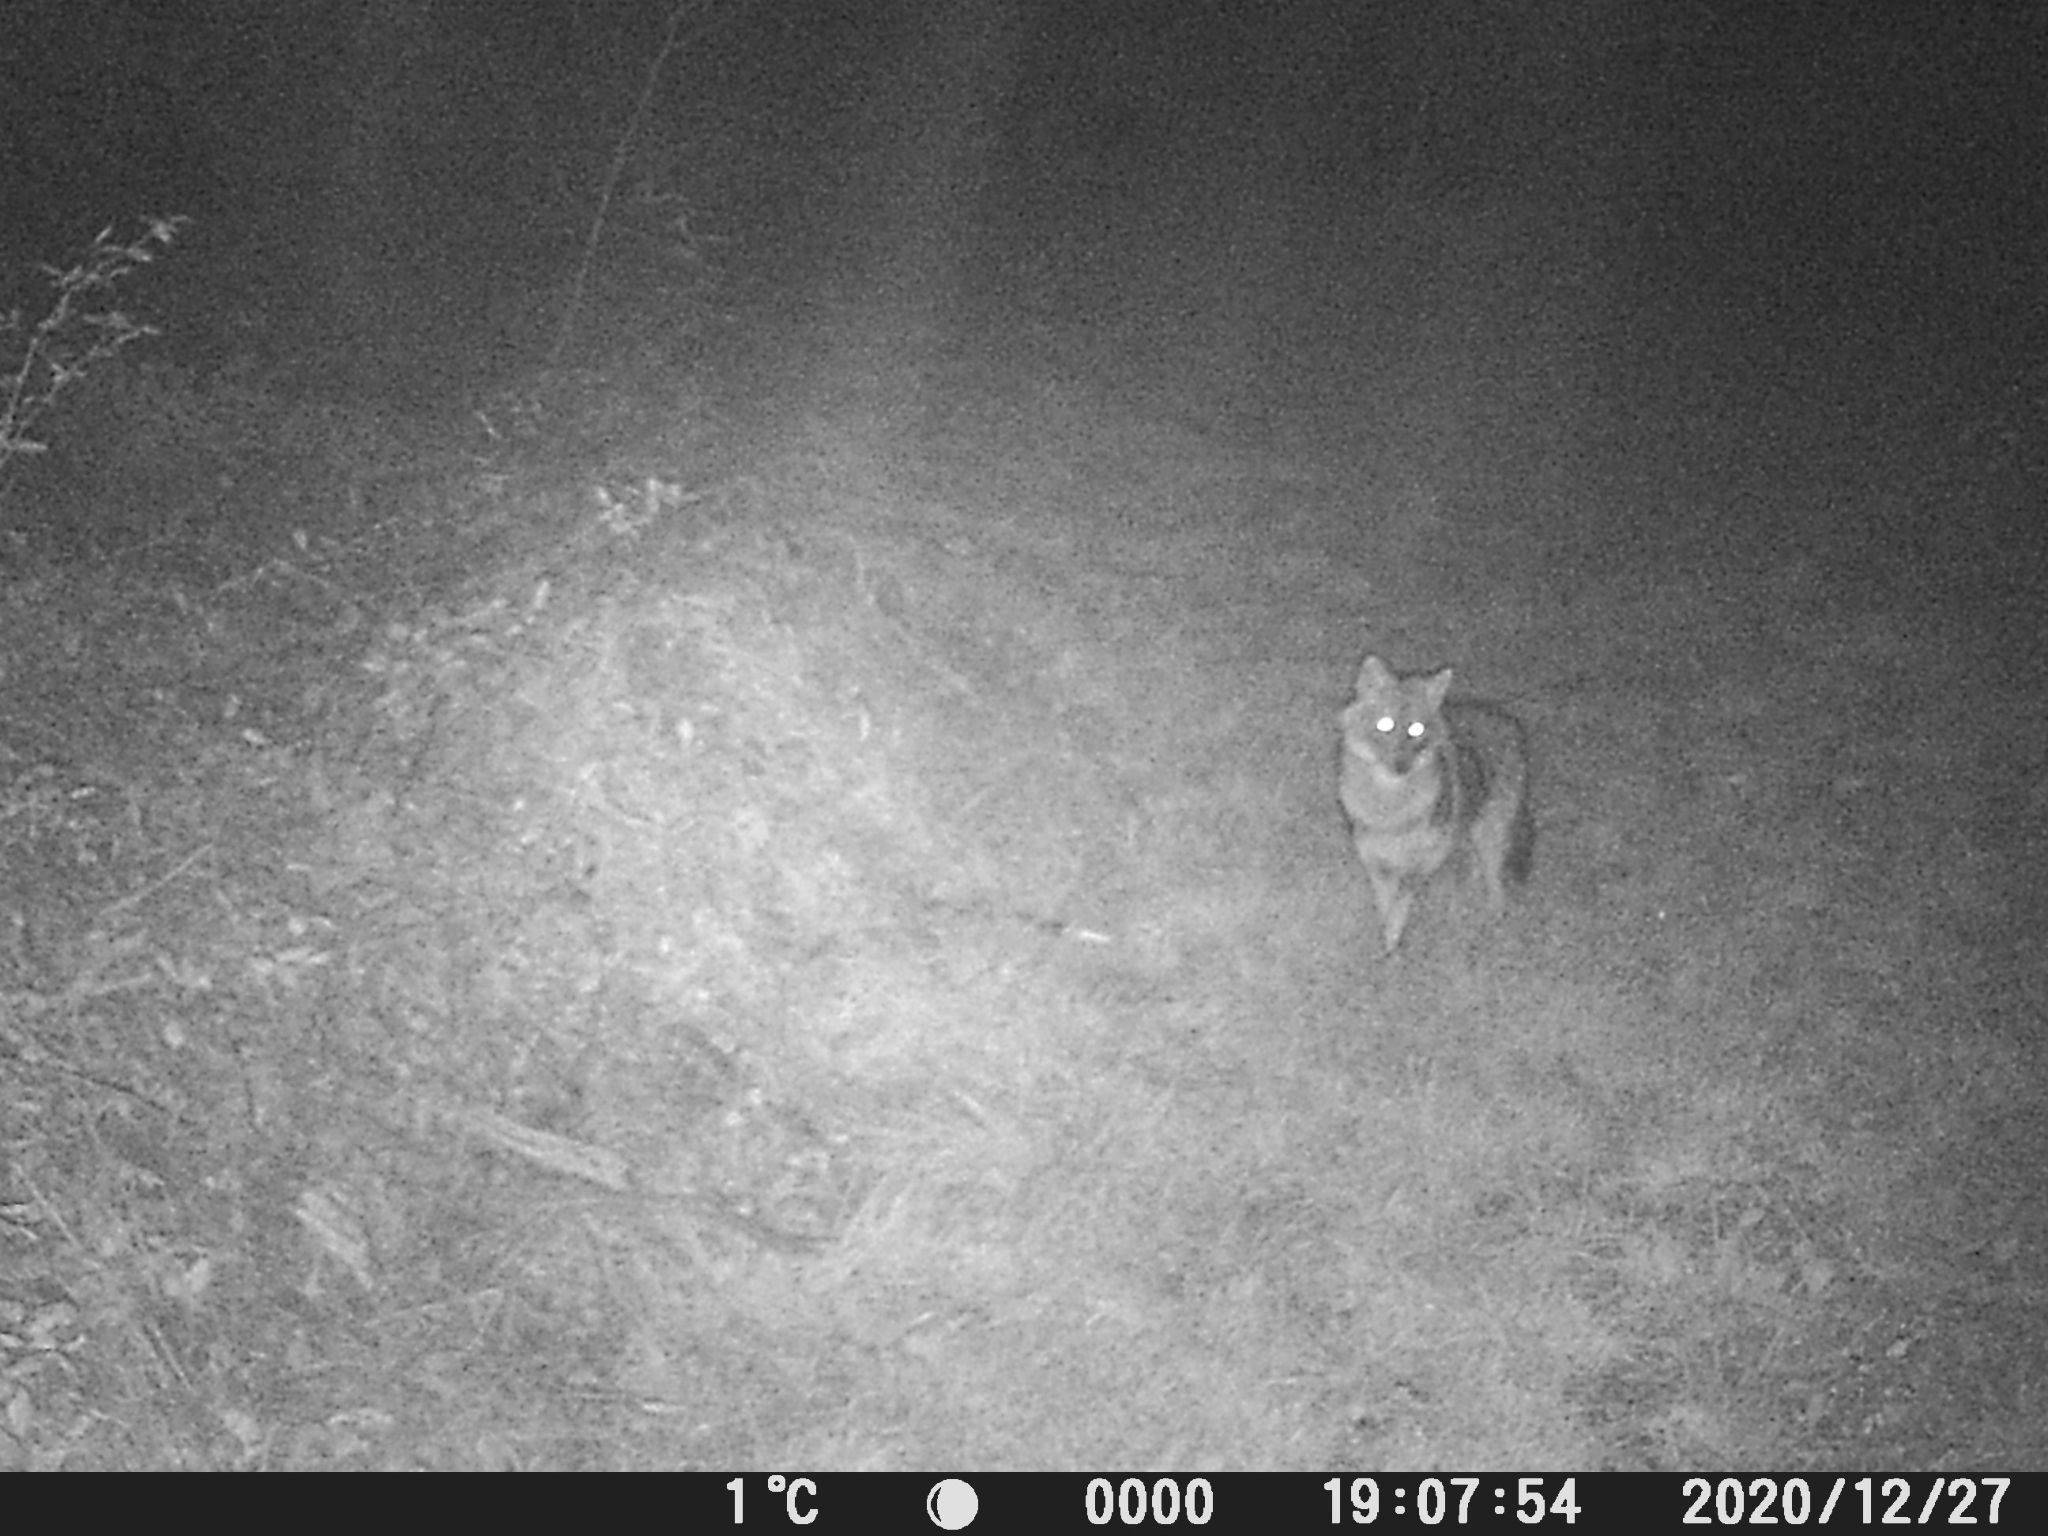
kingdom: Animalia
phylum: Chordata
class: Mammalia
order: Carnivora
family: Canidae
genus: Canis
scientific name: Canis aureus
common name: Golden jackal
